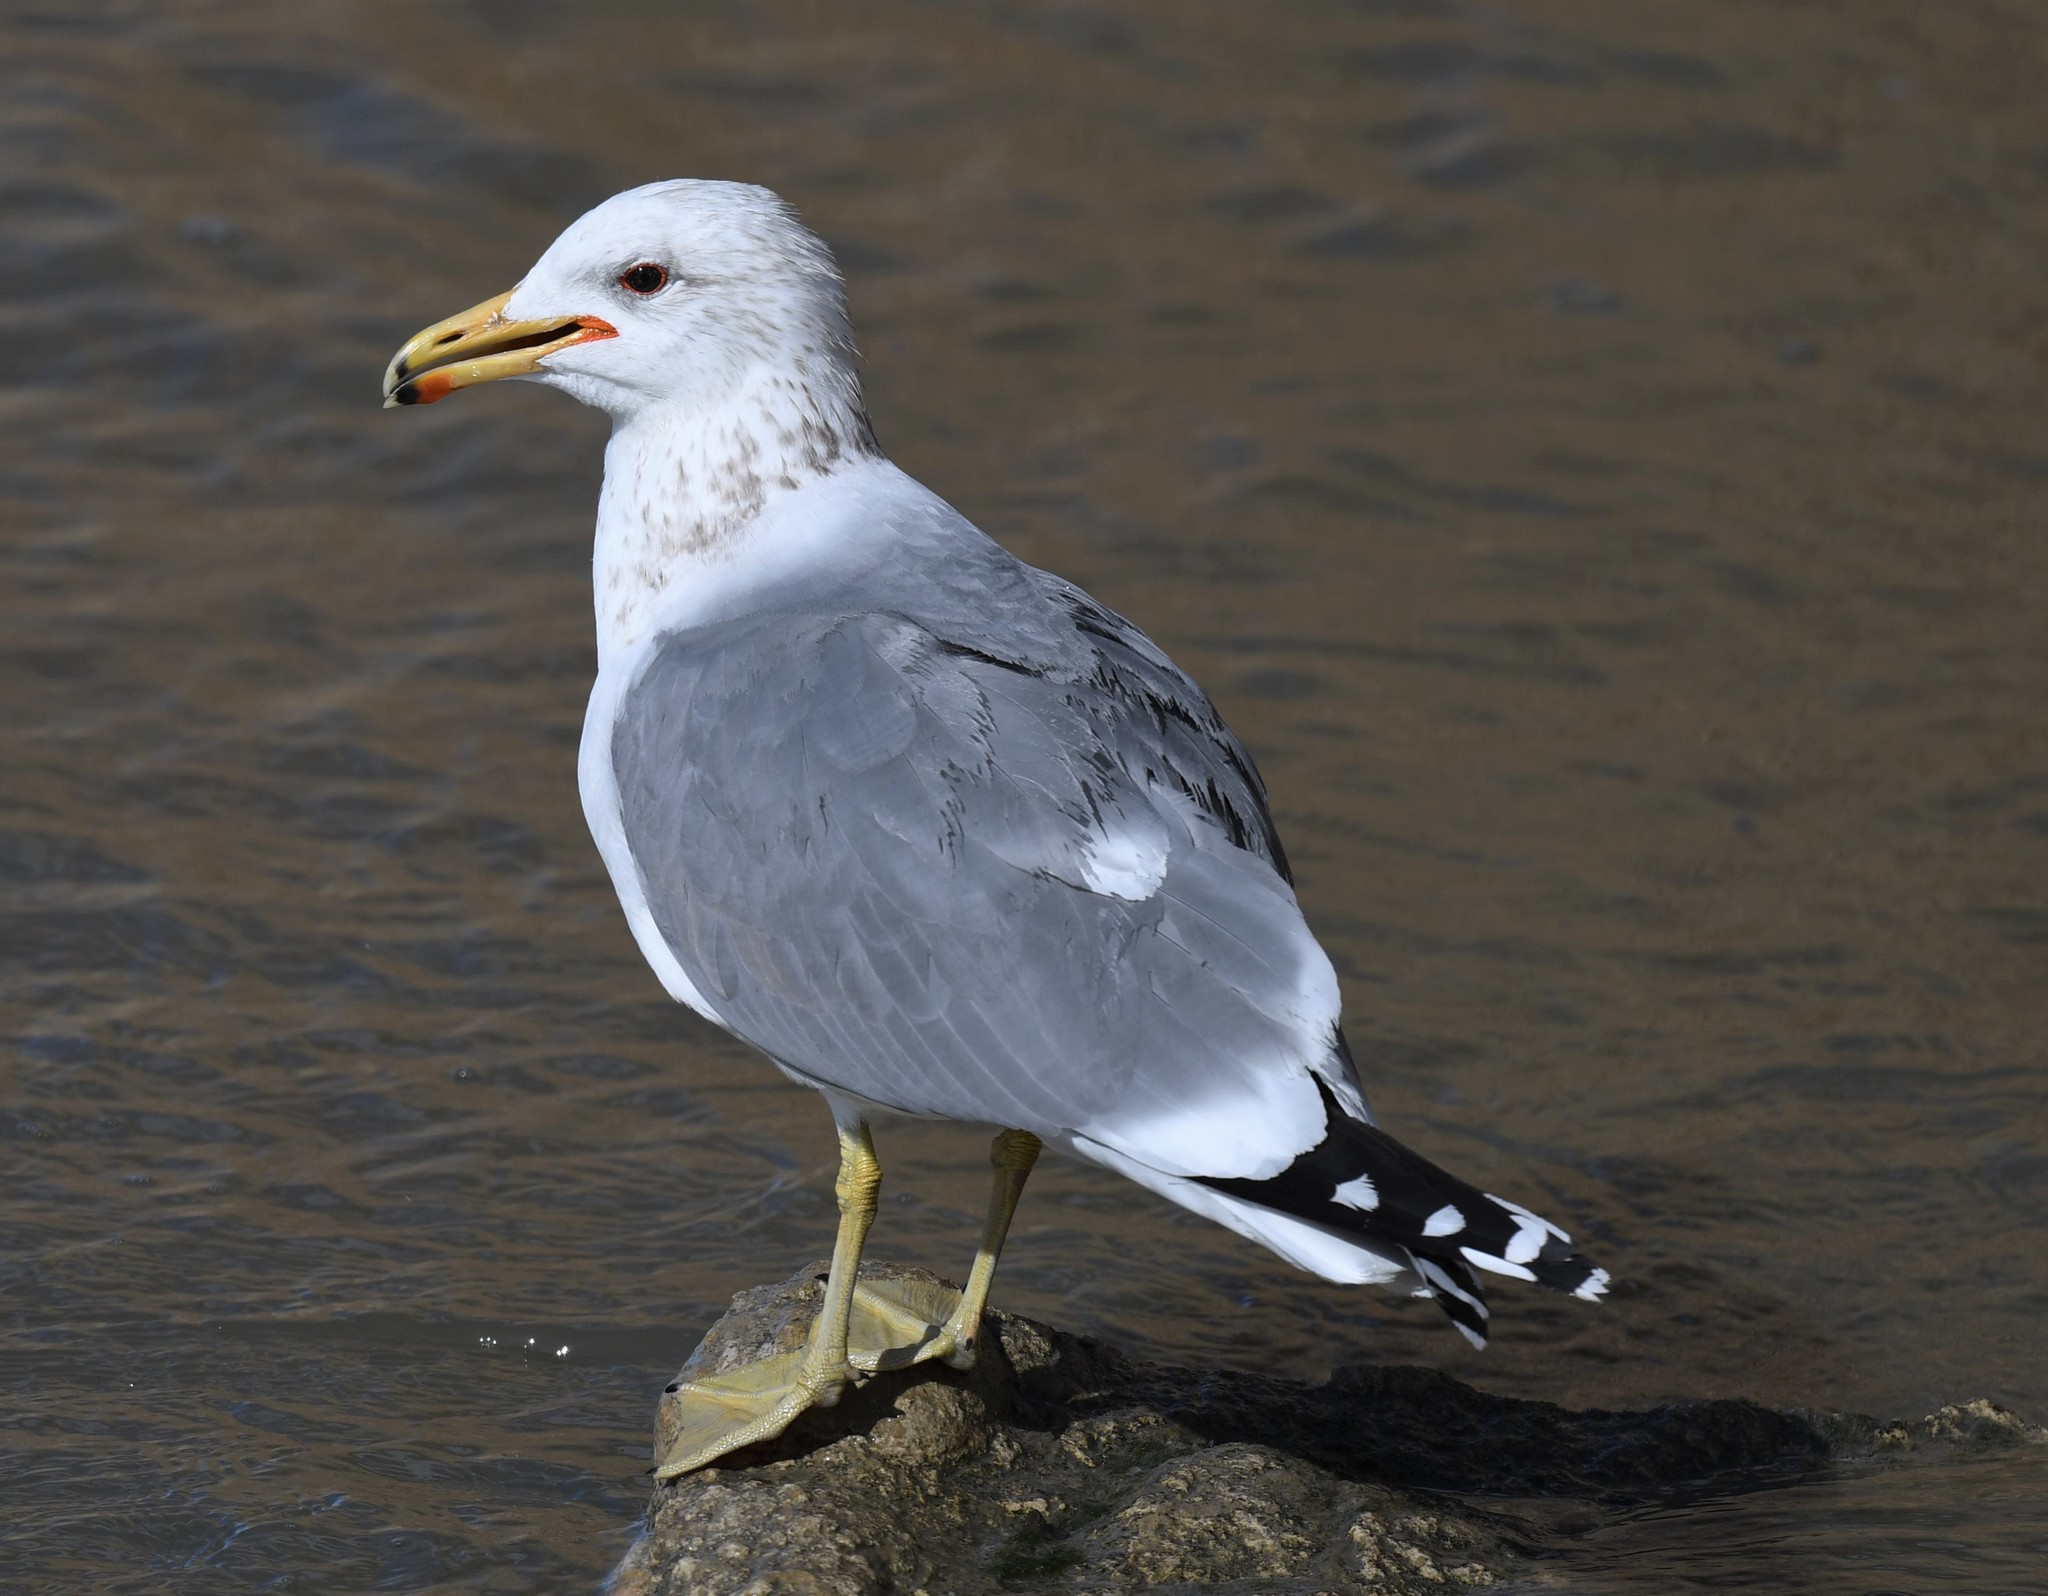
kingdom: Animalia
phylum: Chordata
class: Aves
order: Charadriiformes
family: Laridae
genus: Larus
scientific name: Larus californicus
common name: California gull
